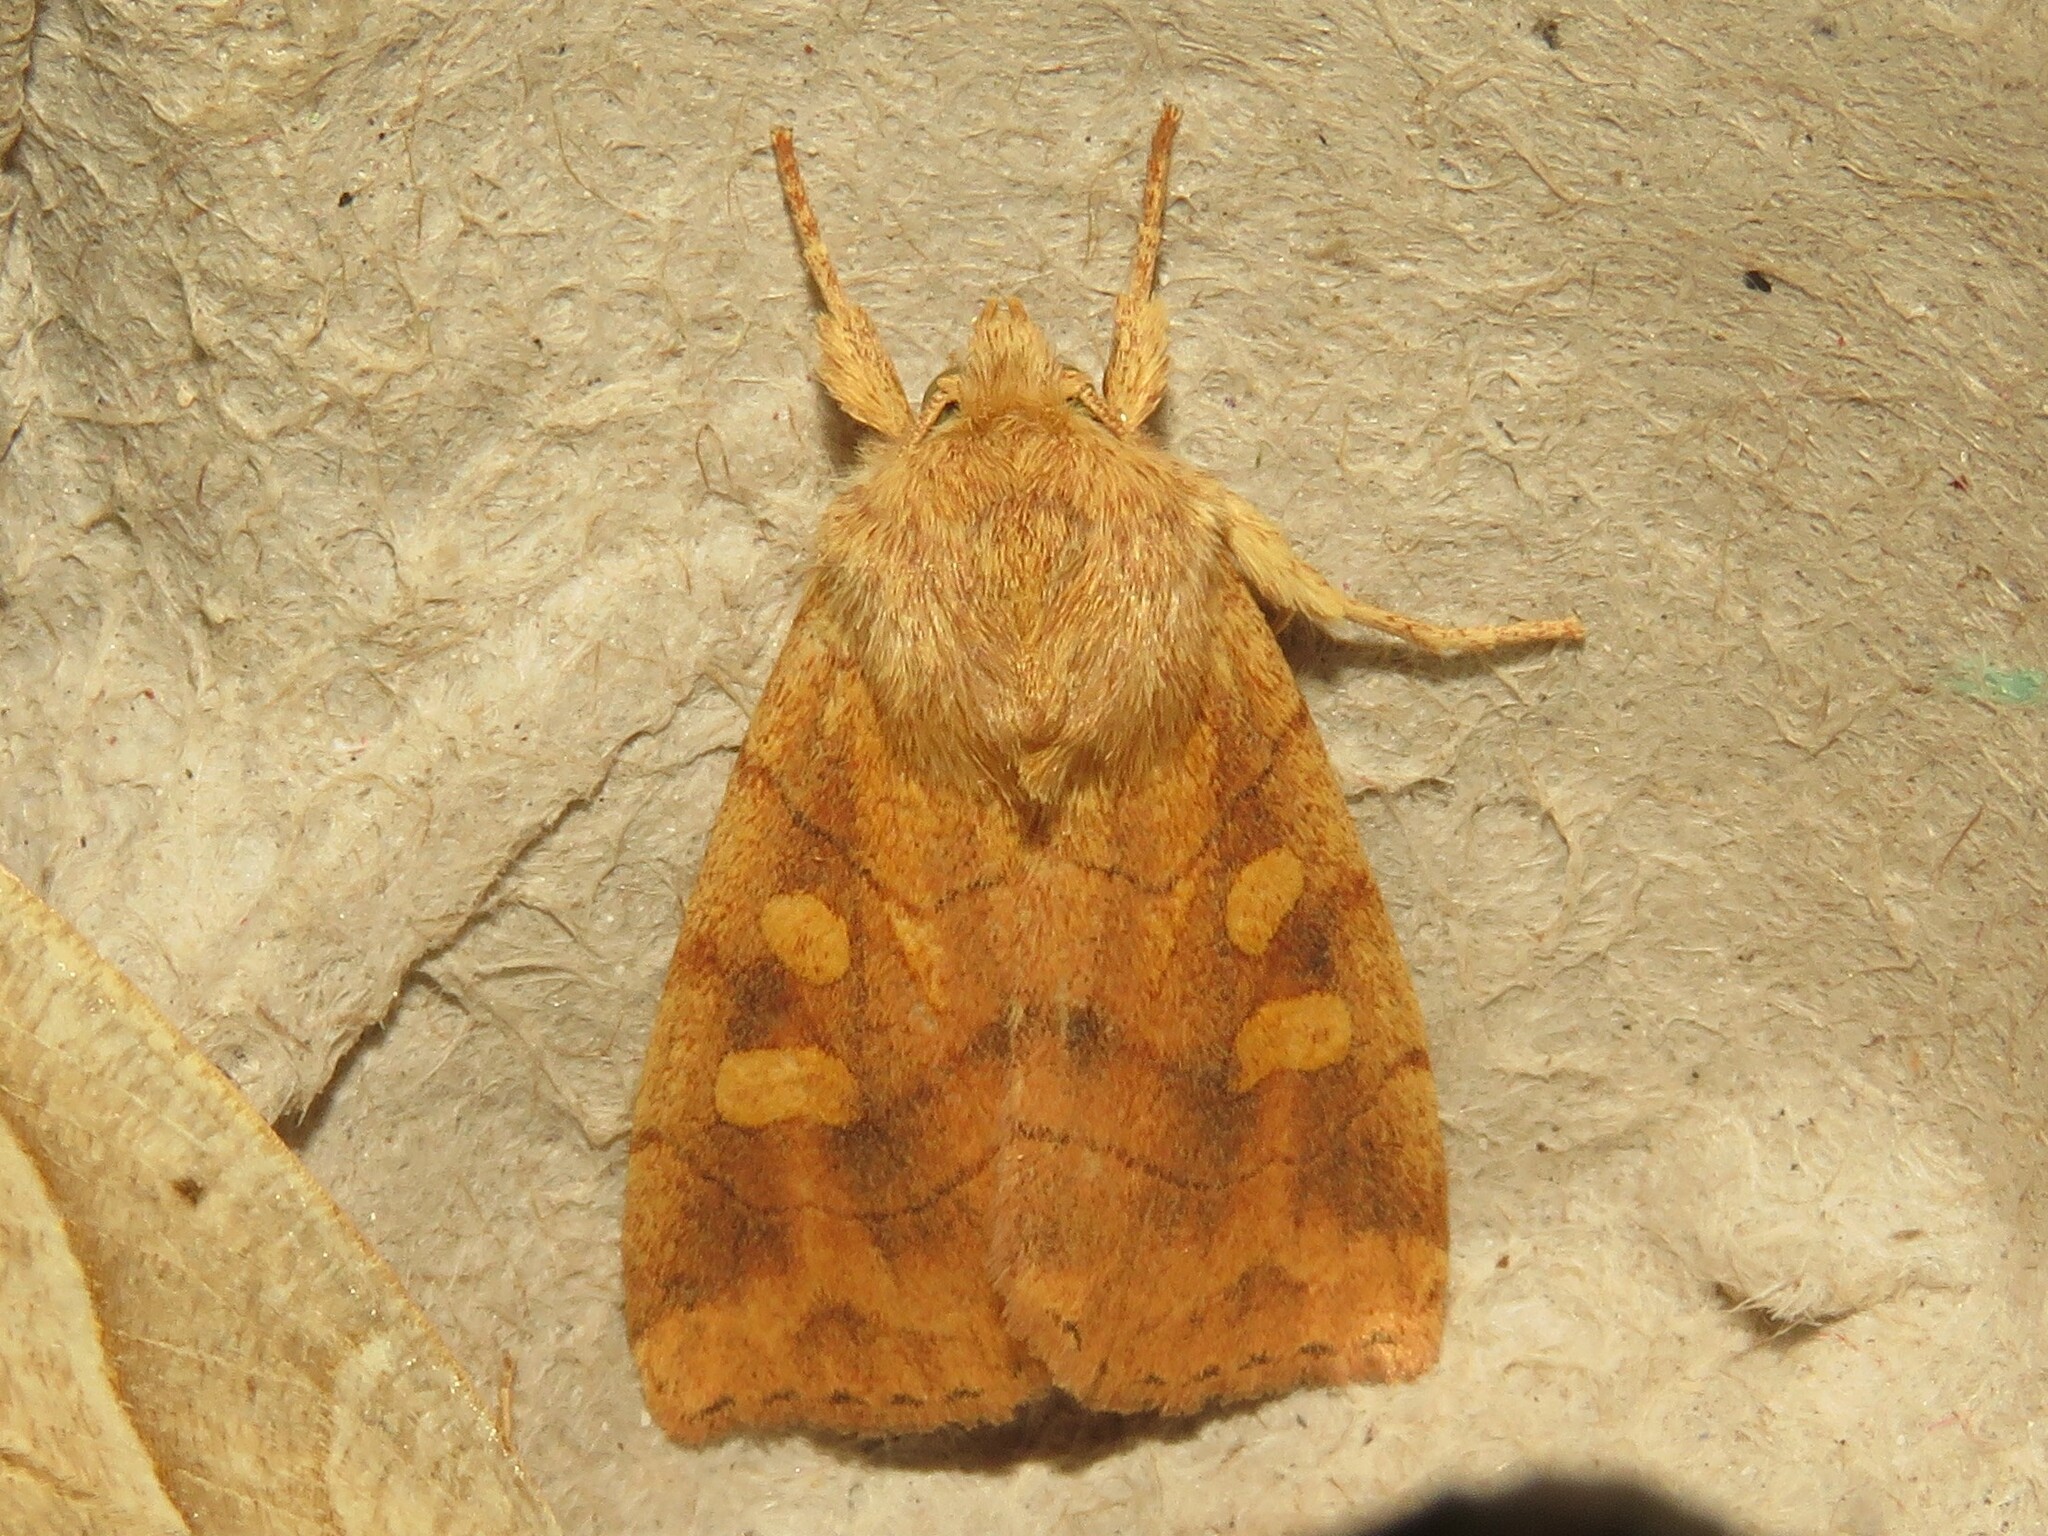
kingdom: Animalia
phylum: Arthropoda
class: Insecta
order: Lepidoptera
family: Noctuidae
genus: Enargia
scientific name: Enargia decolor
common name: Aspen twoleaf tier moth
